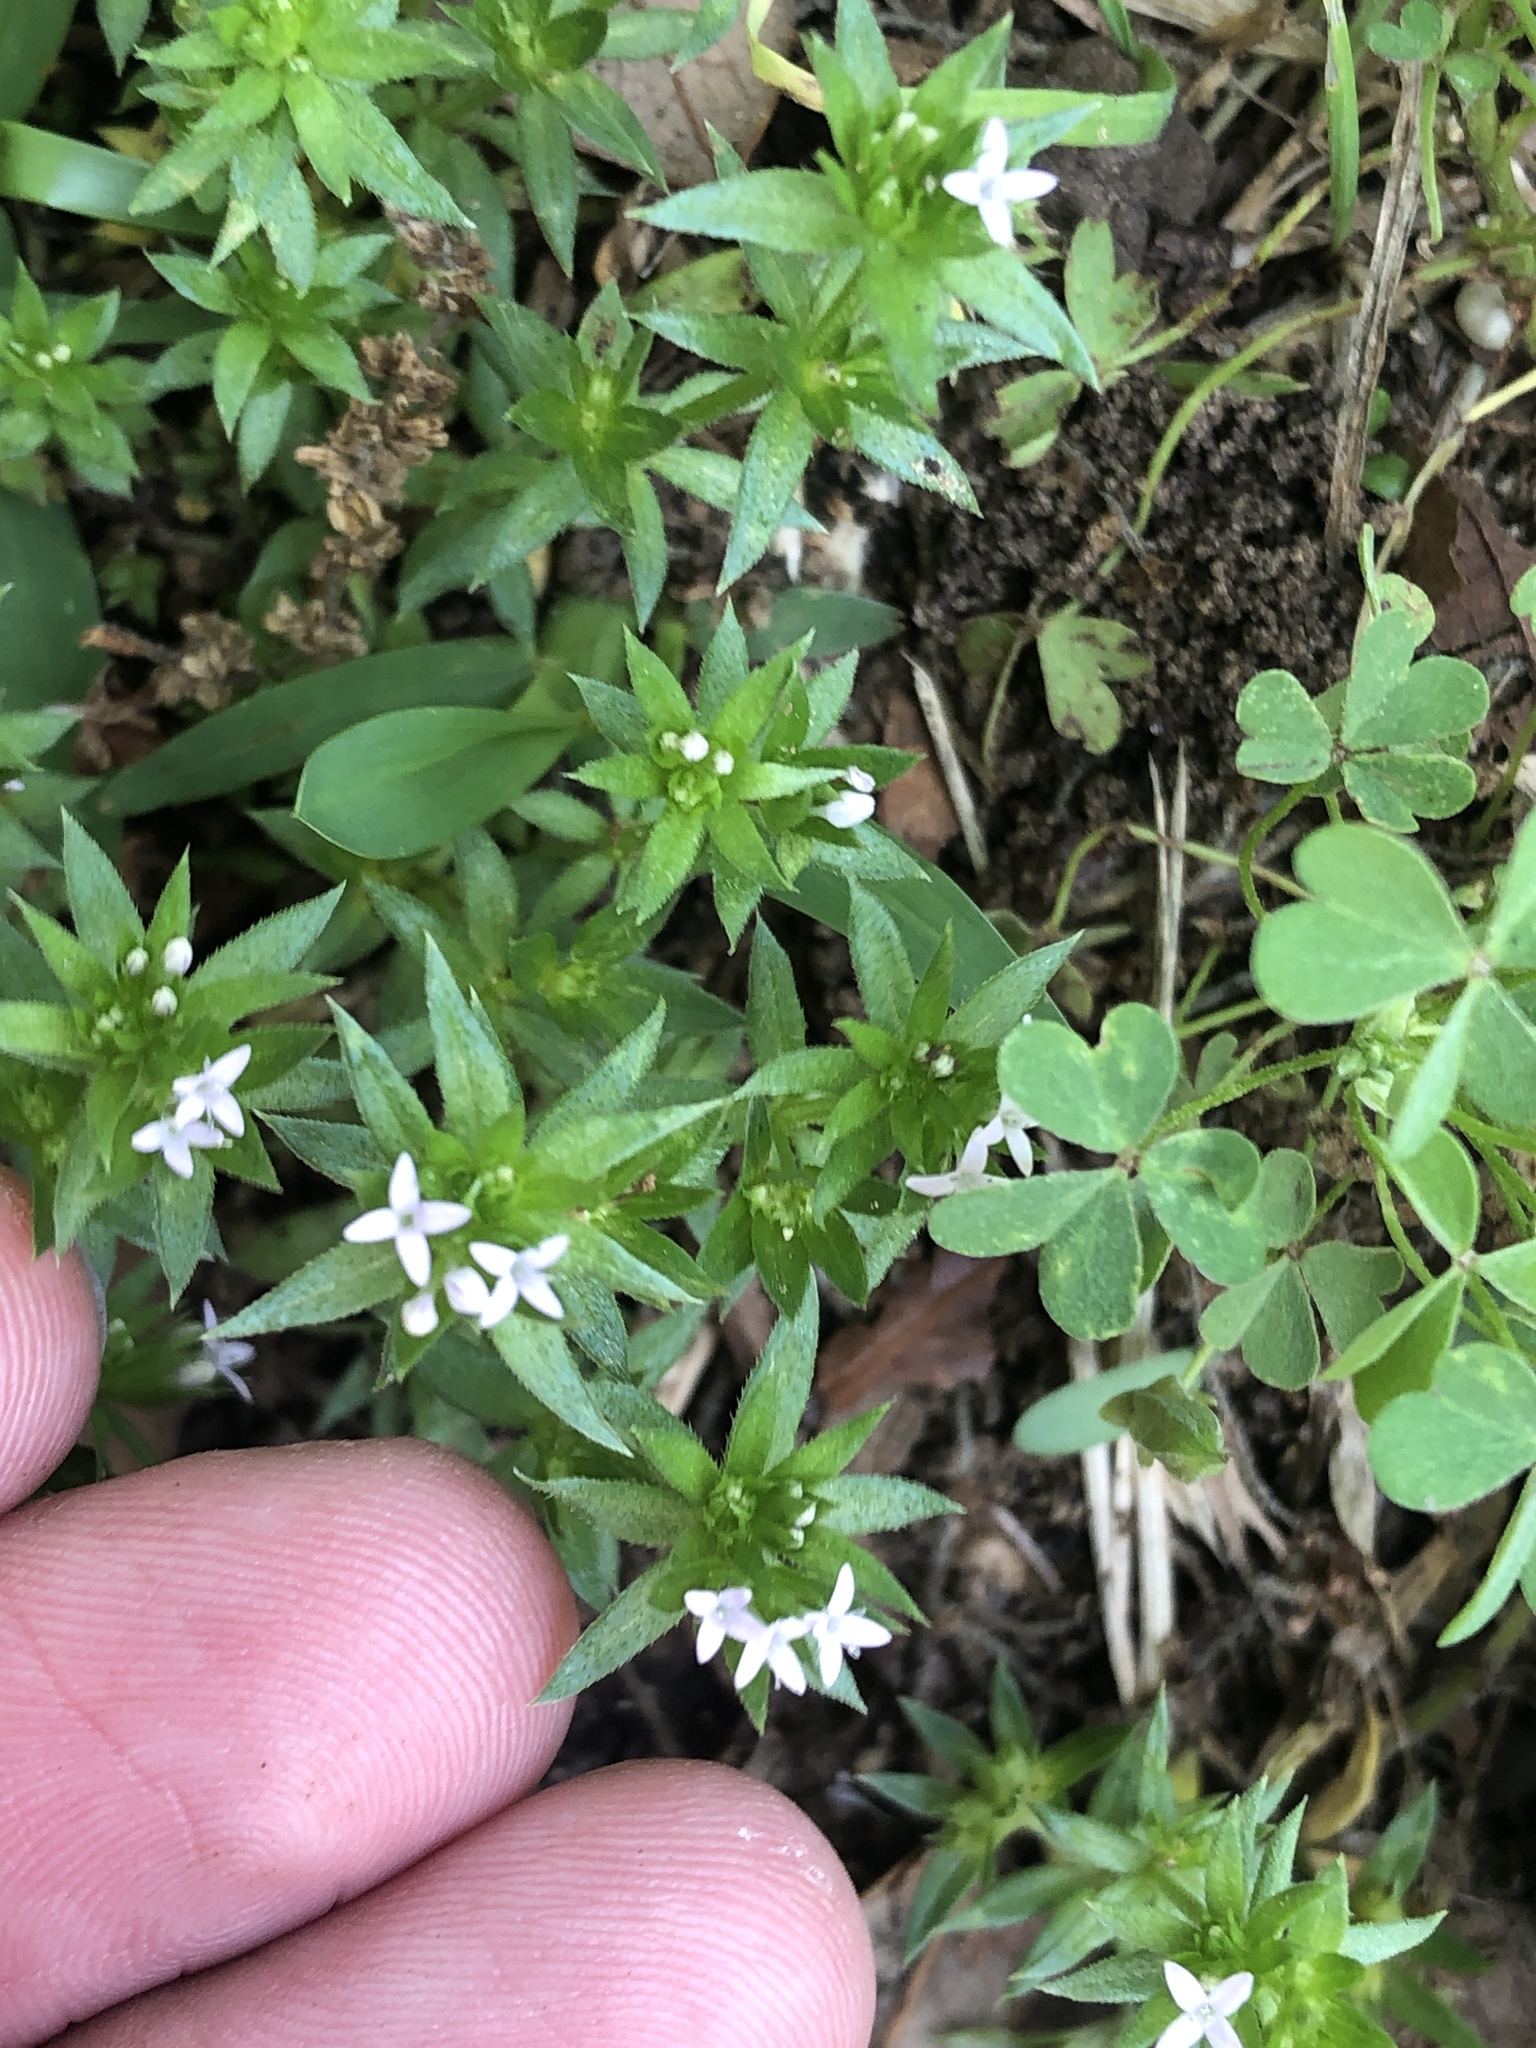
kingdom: Plantae
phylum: Tracheophyta
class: Magnoliopsida
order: Gentianales
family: Rubiaceae
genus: Sherardia
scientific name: Sherardia arvensis
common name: Field madder
